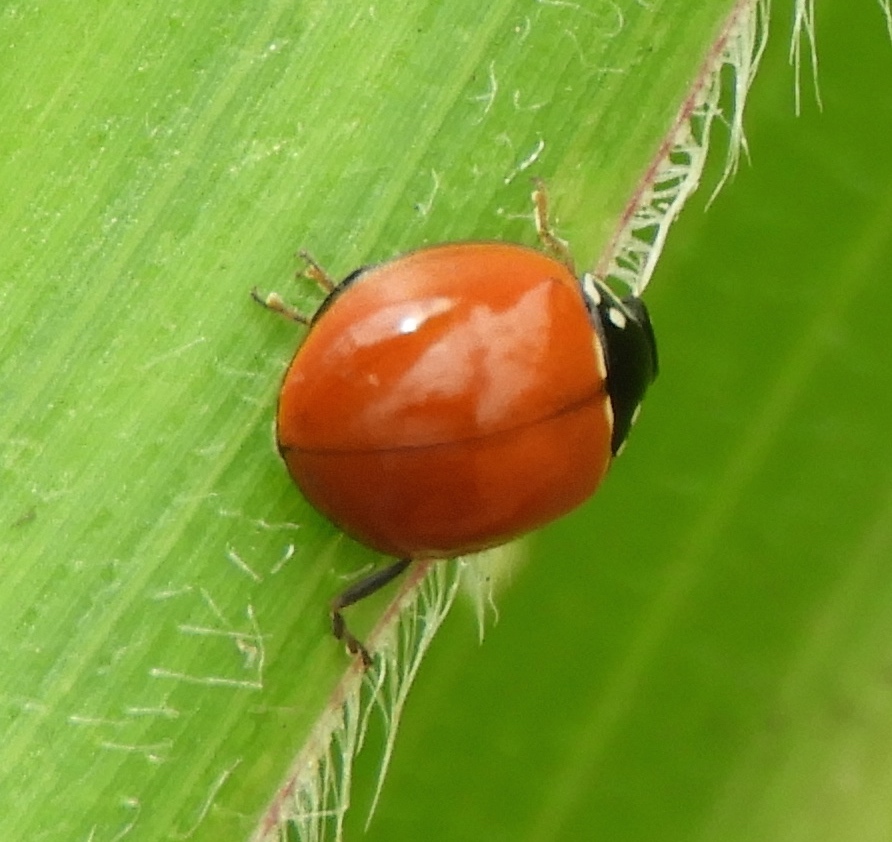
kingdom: Animalia
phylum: Arthropoda
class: Insecta
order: Coleoptera
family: Coccinellidae
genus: Cycloneda
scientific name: Cycloneda sanguinea
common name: Ladybird beetle
